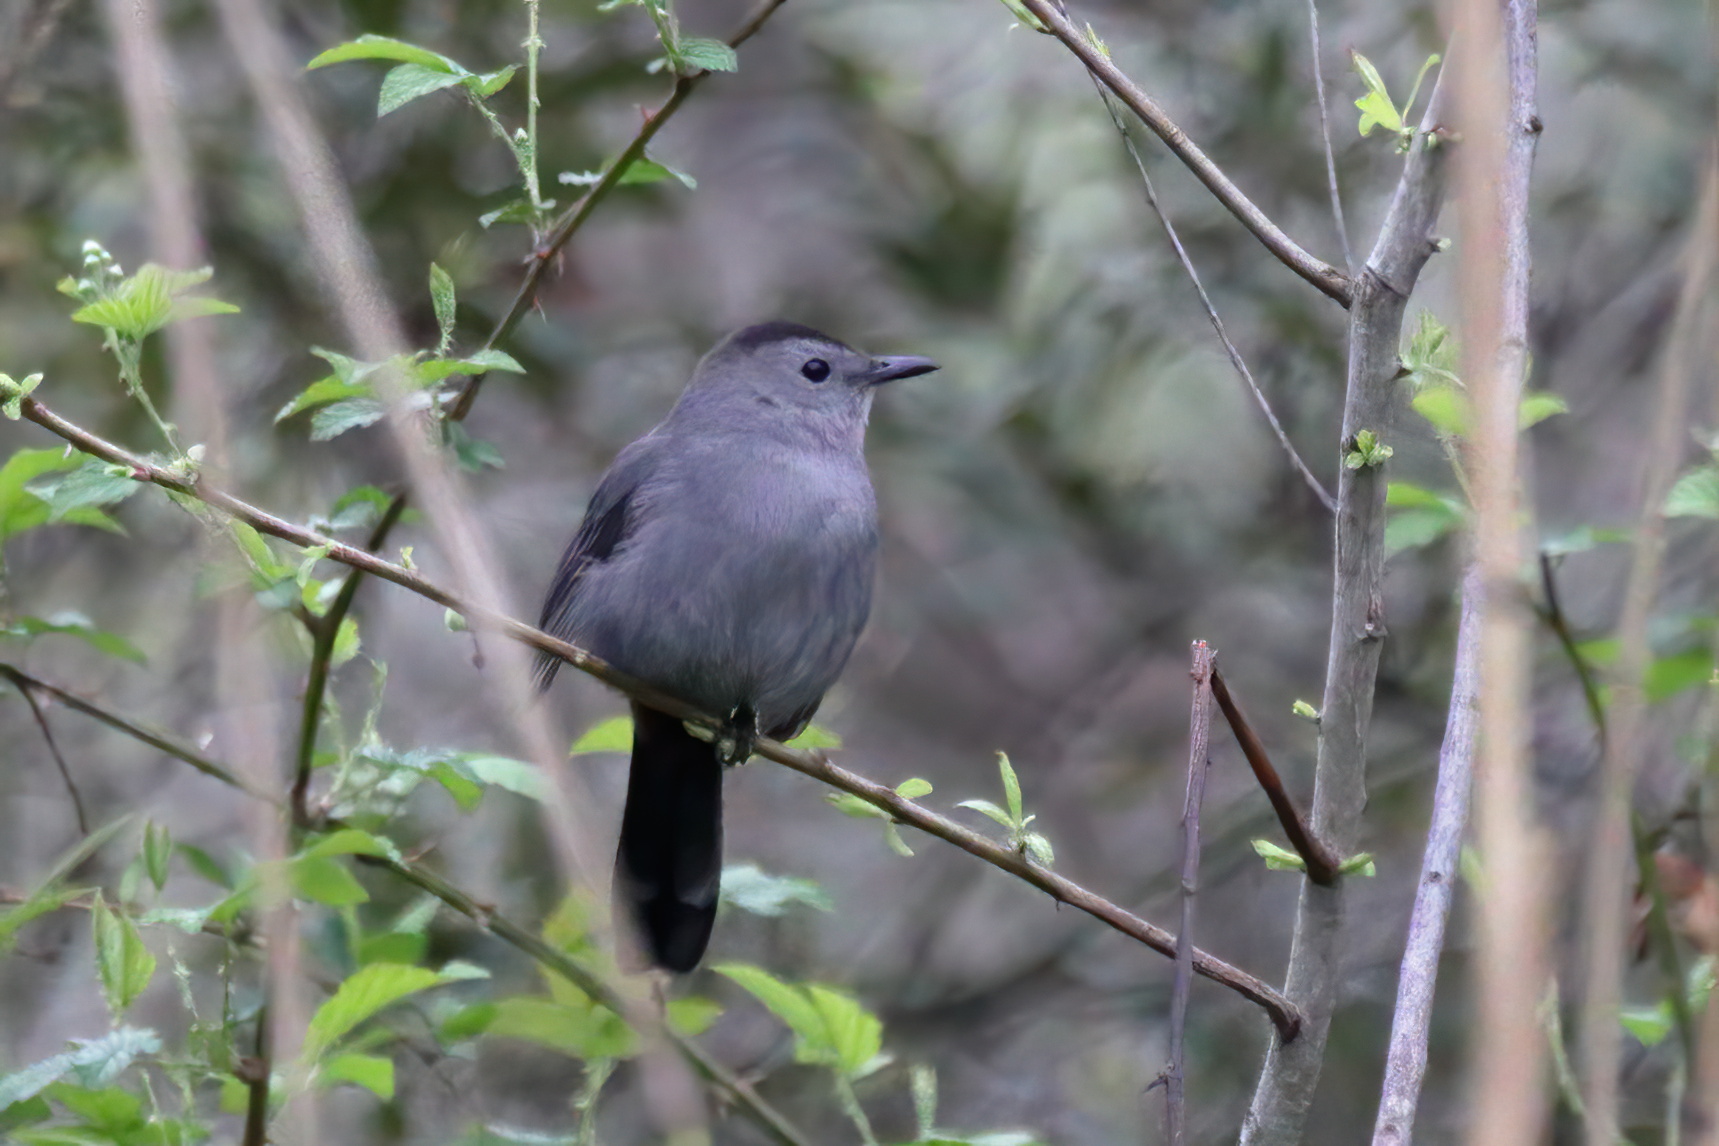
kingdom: Animalia
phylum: Chordata
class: Aves
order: Passeriformes
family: Mimidae
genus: Dumetella
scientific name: Dumetella carolinensis
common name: Gray catbird
